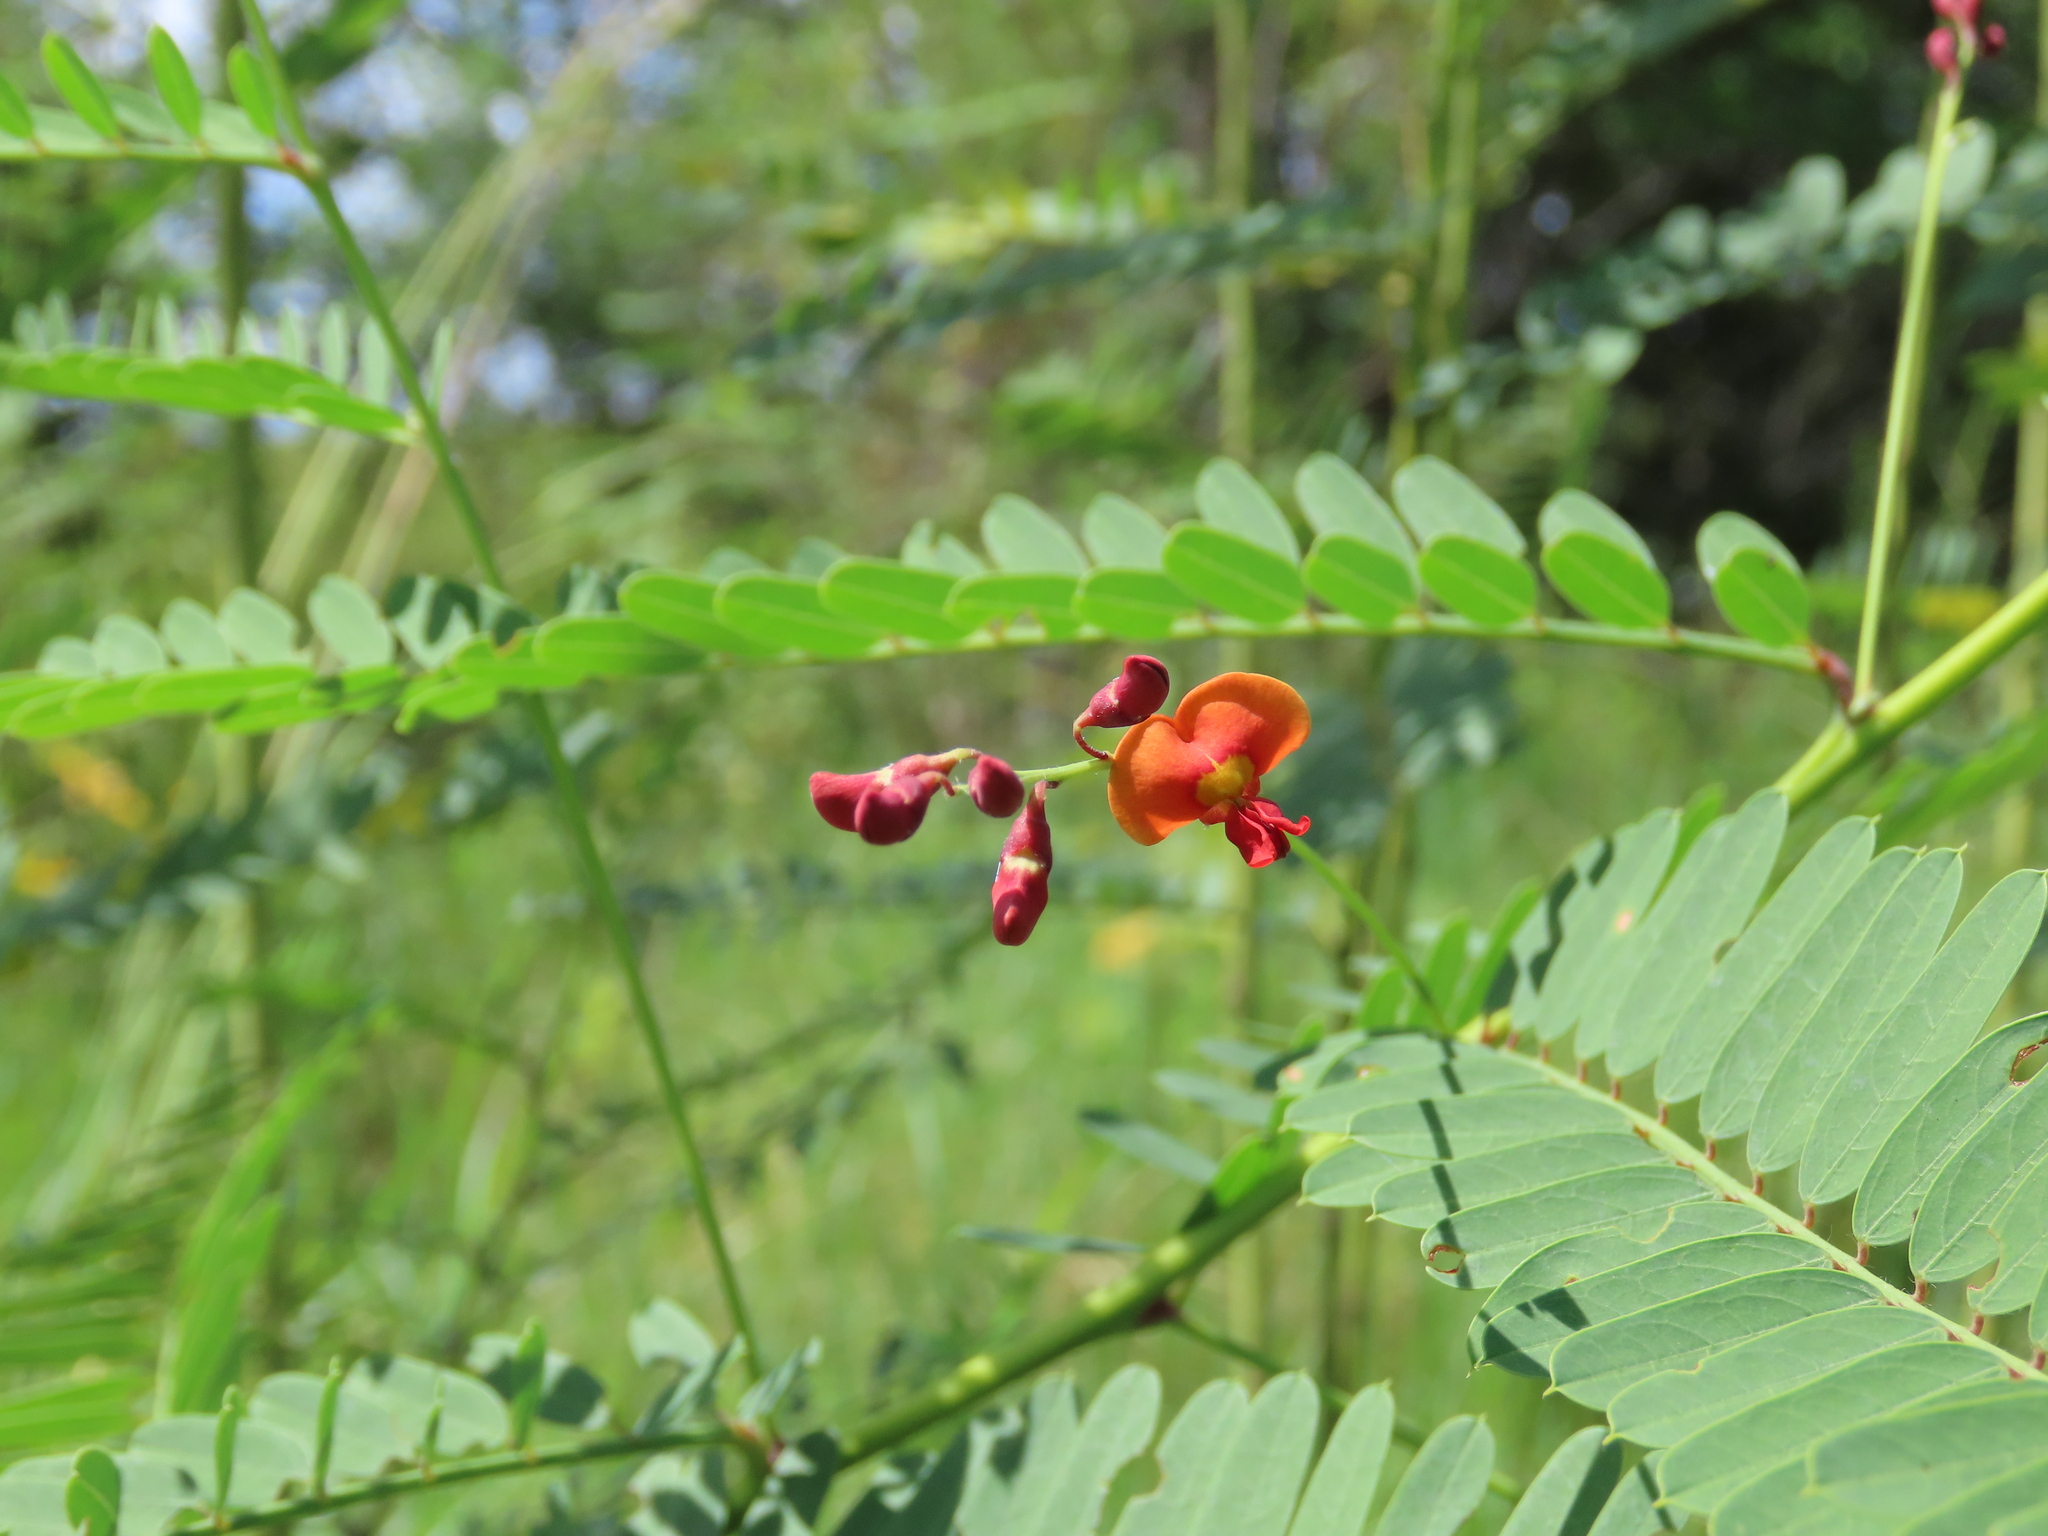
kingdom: Plantae
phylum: Tracheophyta
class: Magnoliopsida
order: Fabales
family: Fabaceae
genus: Sesbania
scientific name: Sesbania vesicaria
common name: Bagpod
